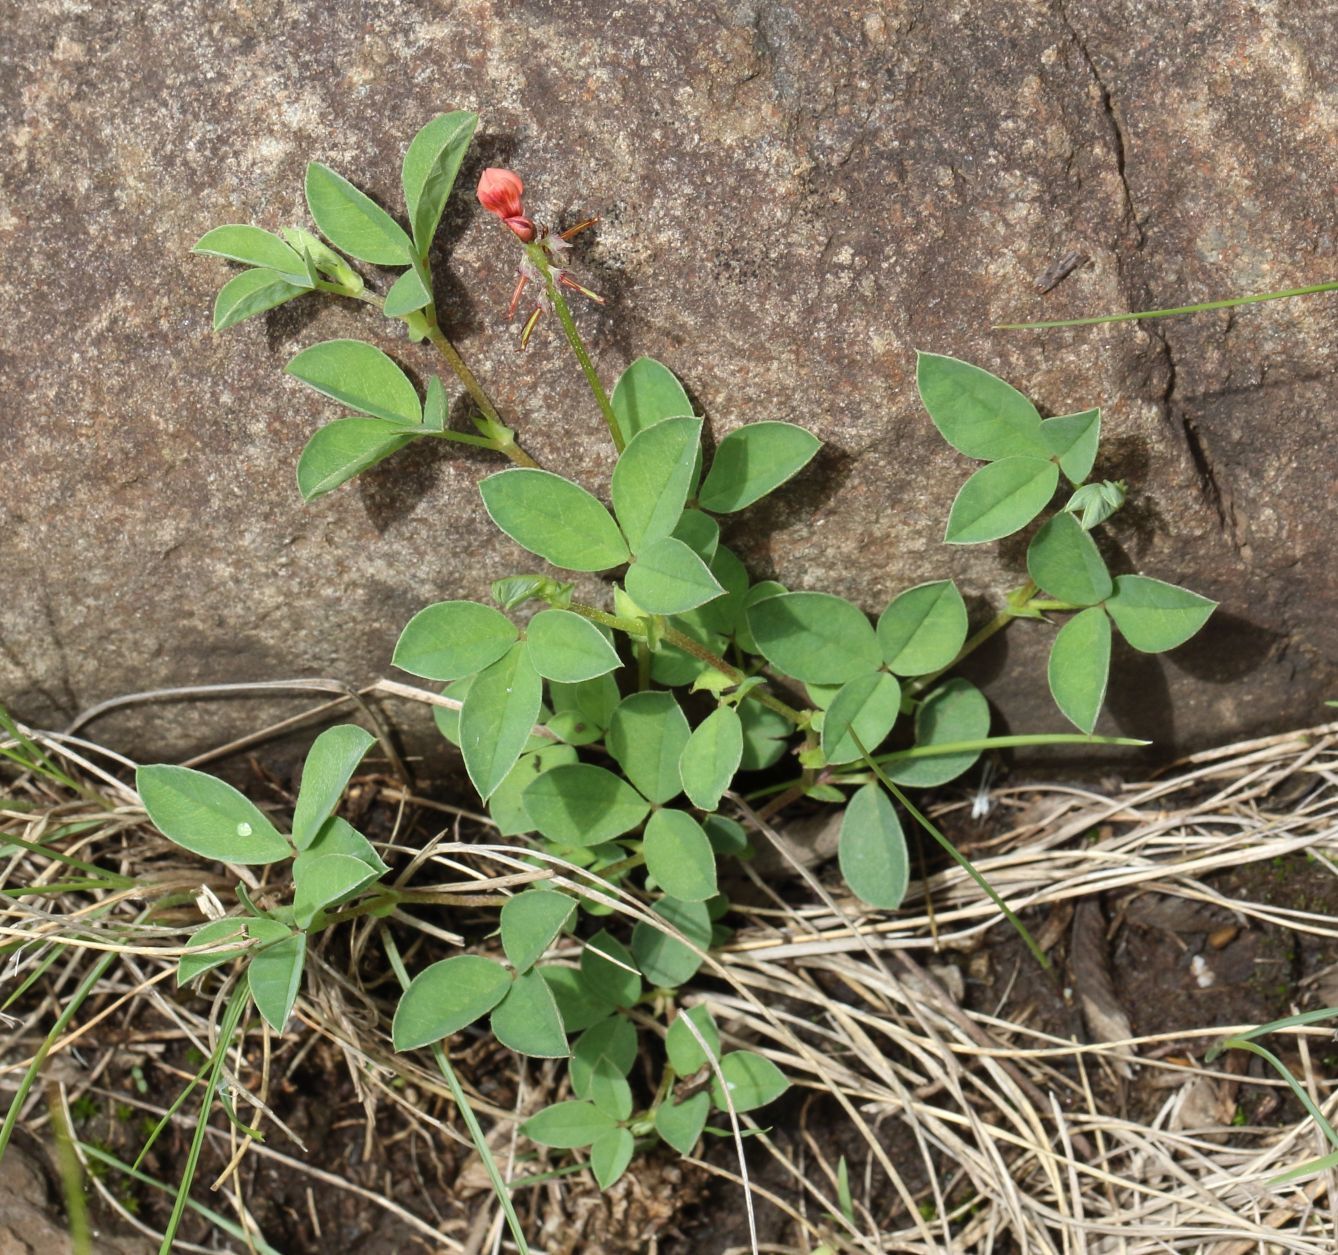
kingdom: Plantae
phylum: Tracheophyta
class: Magnoliopsida
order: Fabales
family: Fabaceae
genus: Indigofera
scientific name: Indigofera evansii
